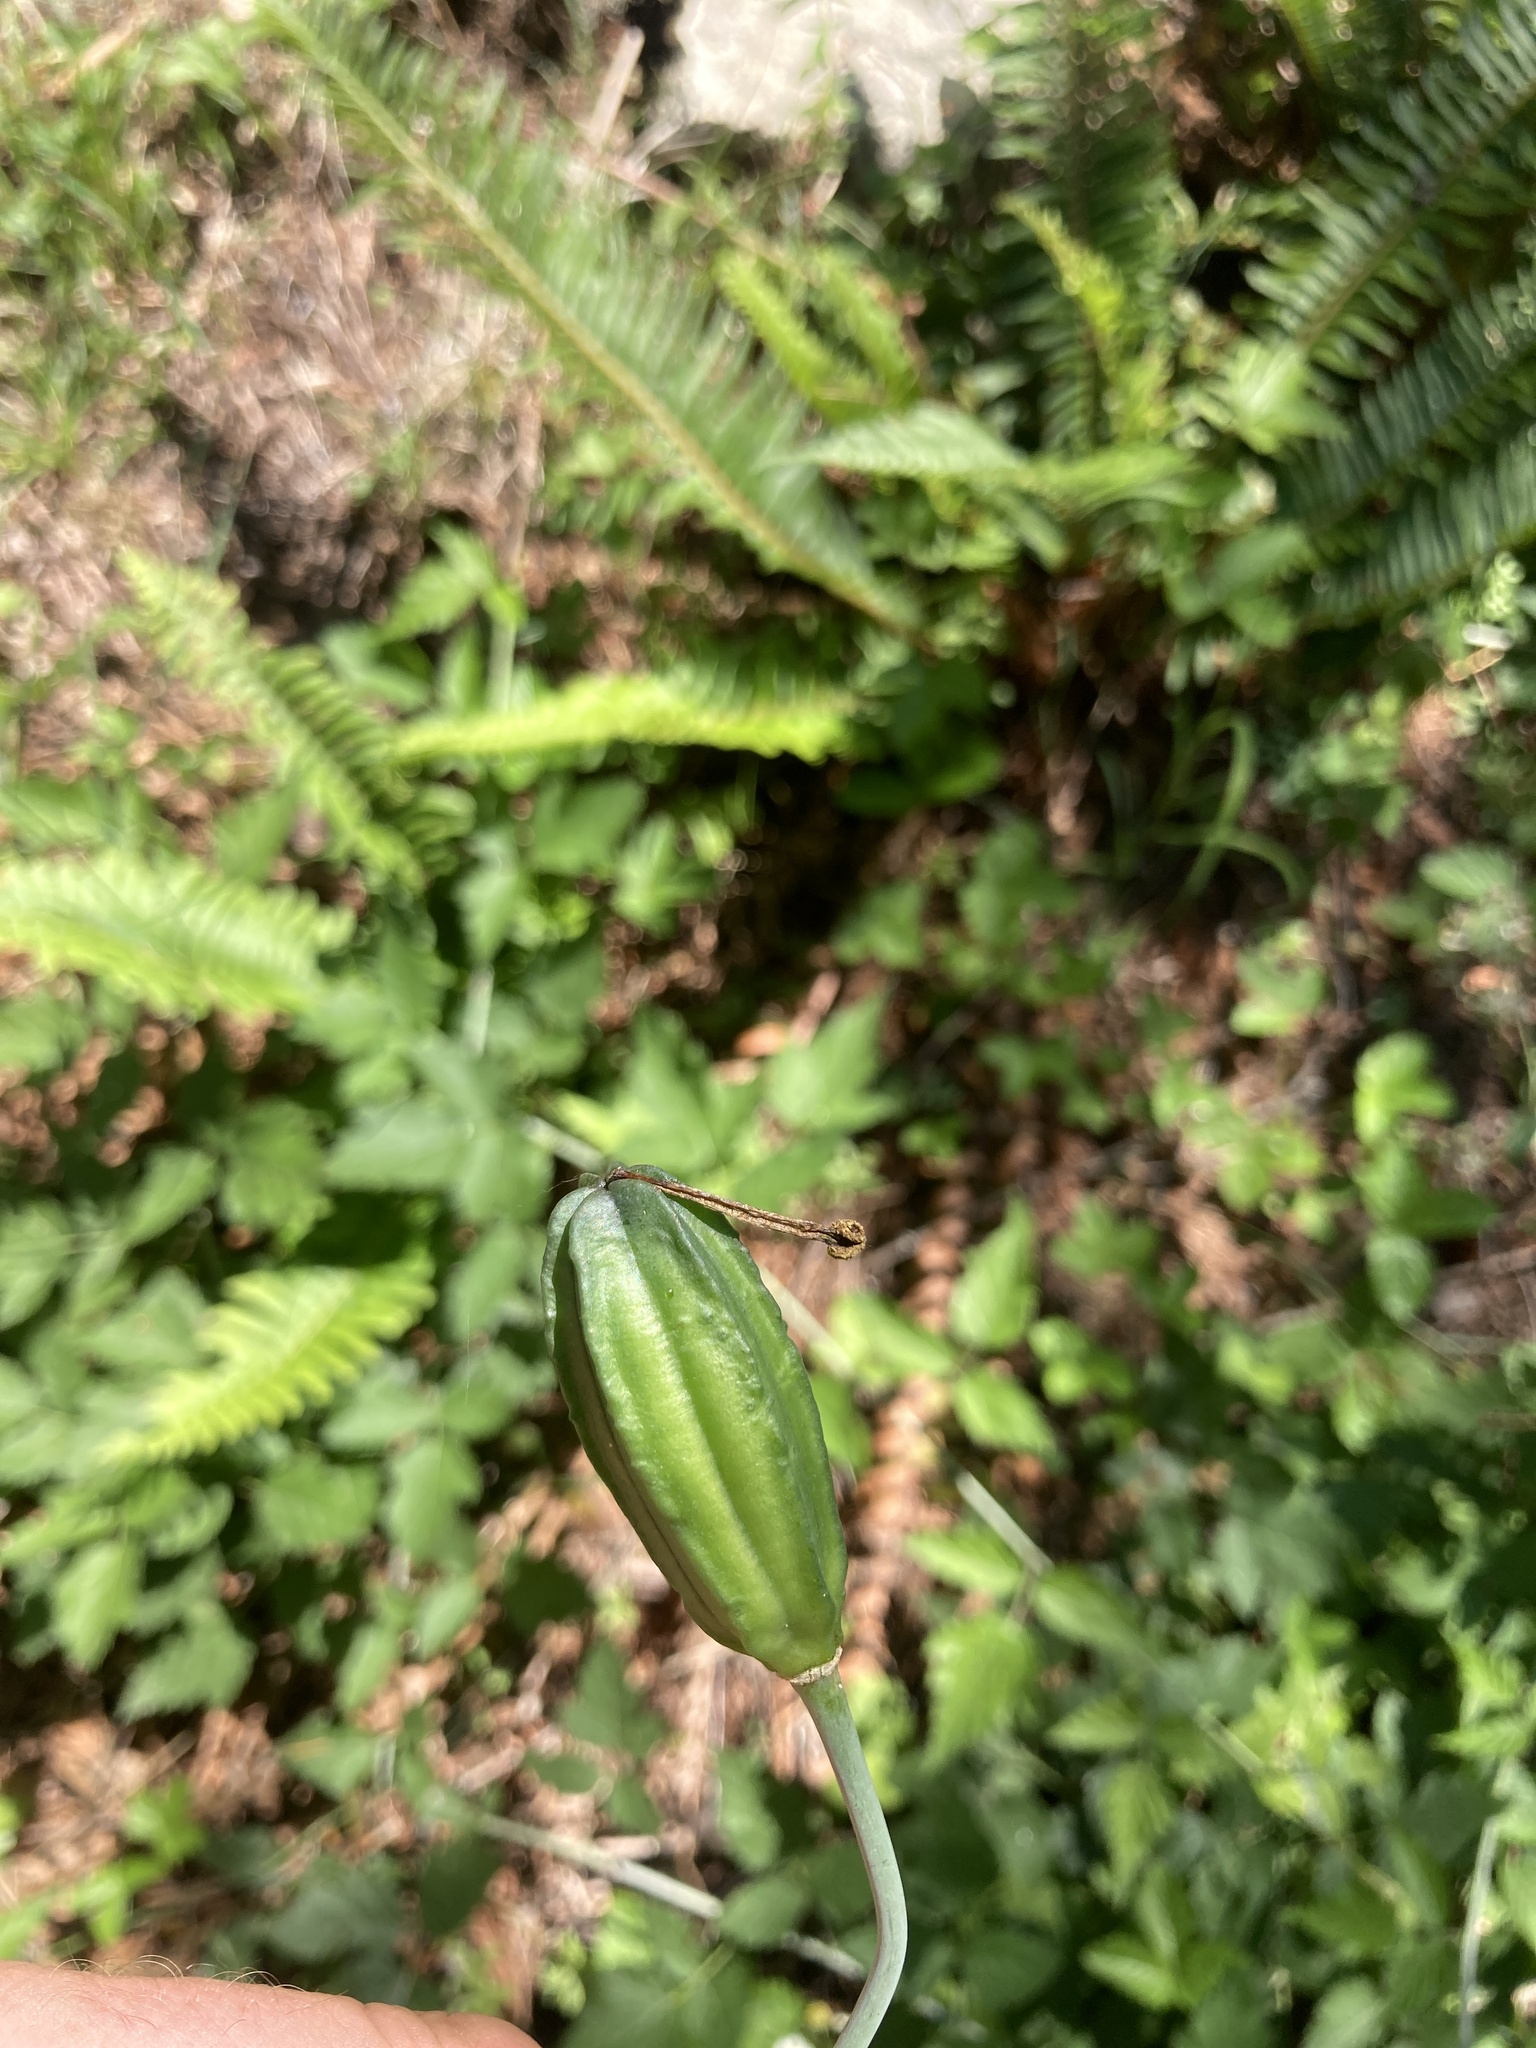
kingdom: Plantae
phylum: Tracheophyta
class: Liliopsida
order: Liliales
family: Liliaceae
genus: Lilium
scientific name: Lilium columbianum
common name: Columbia lily
